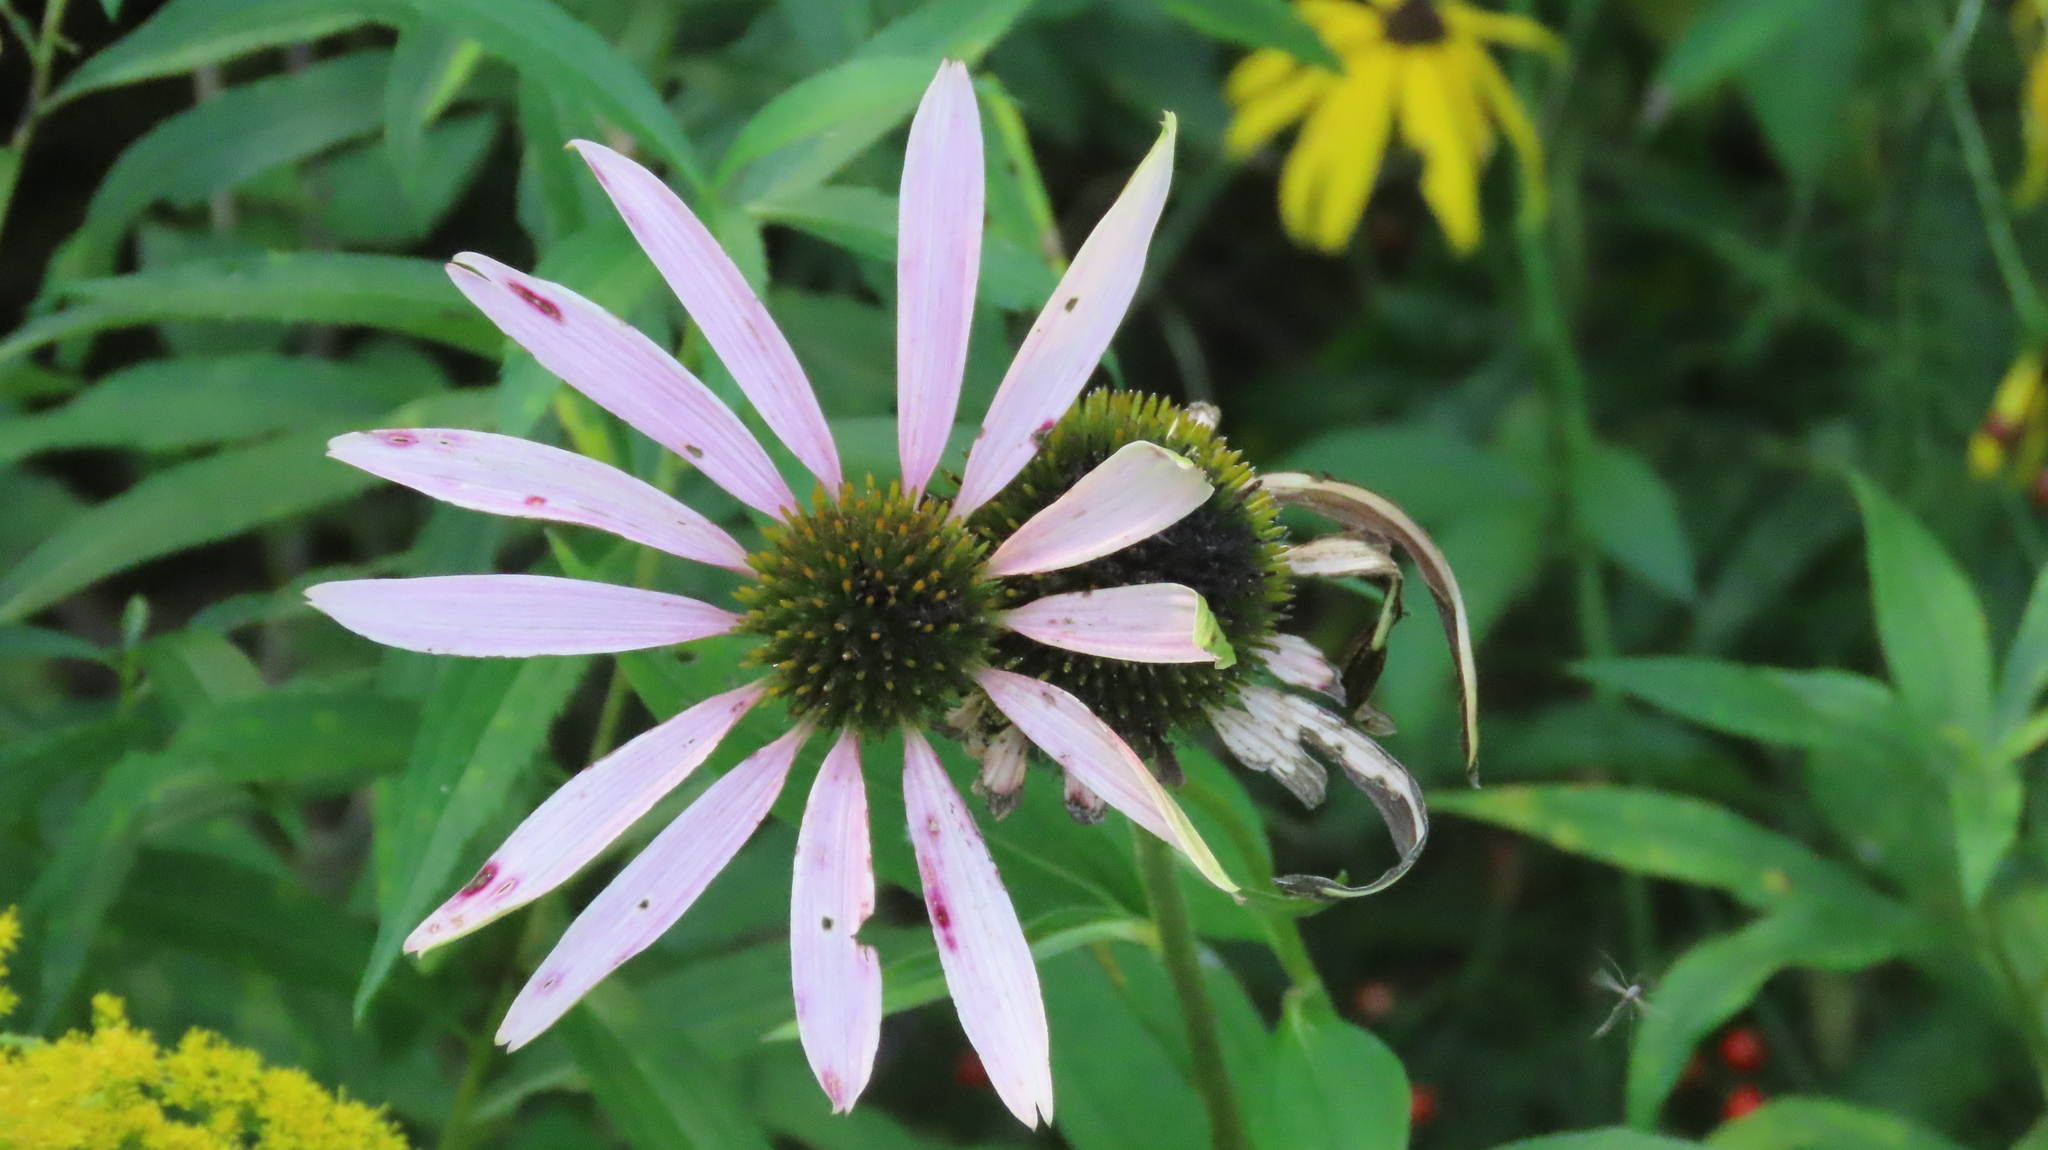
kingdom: Plantae
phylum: Tracheophyta
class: Magnoliopsida
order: Asterales
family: Asteraceae
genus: Echinacea
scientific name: Echinacea purpurea
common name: Broad-leaved purple coneflower
